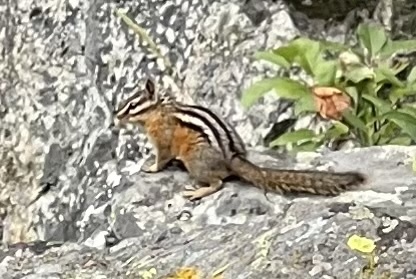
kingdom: Animalia
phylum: Chordata
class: Mammalia
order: Rodentia
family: Sciuridae
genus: Tamias
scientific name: Tamias amoenus
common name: Yellow-pine chipmunk
